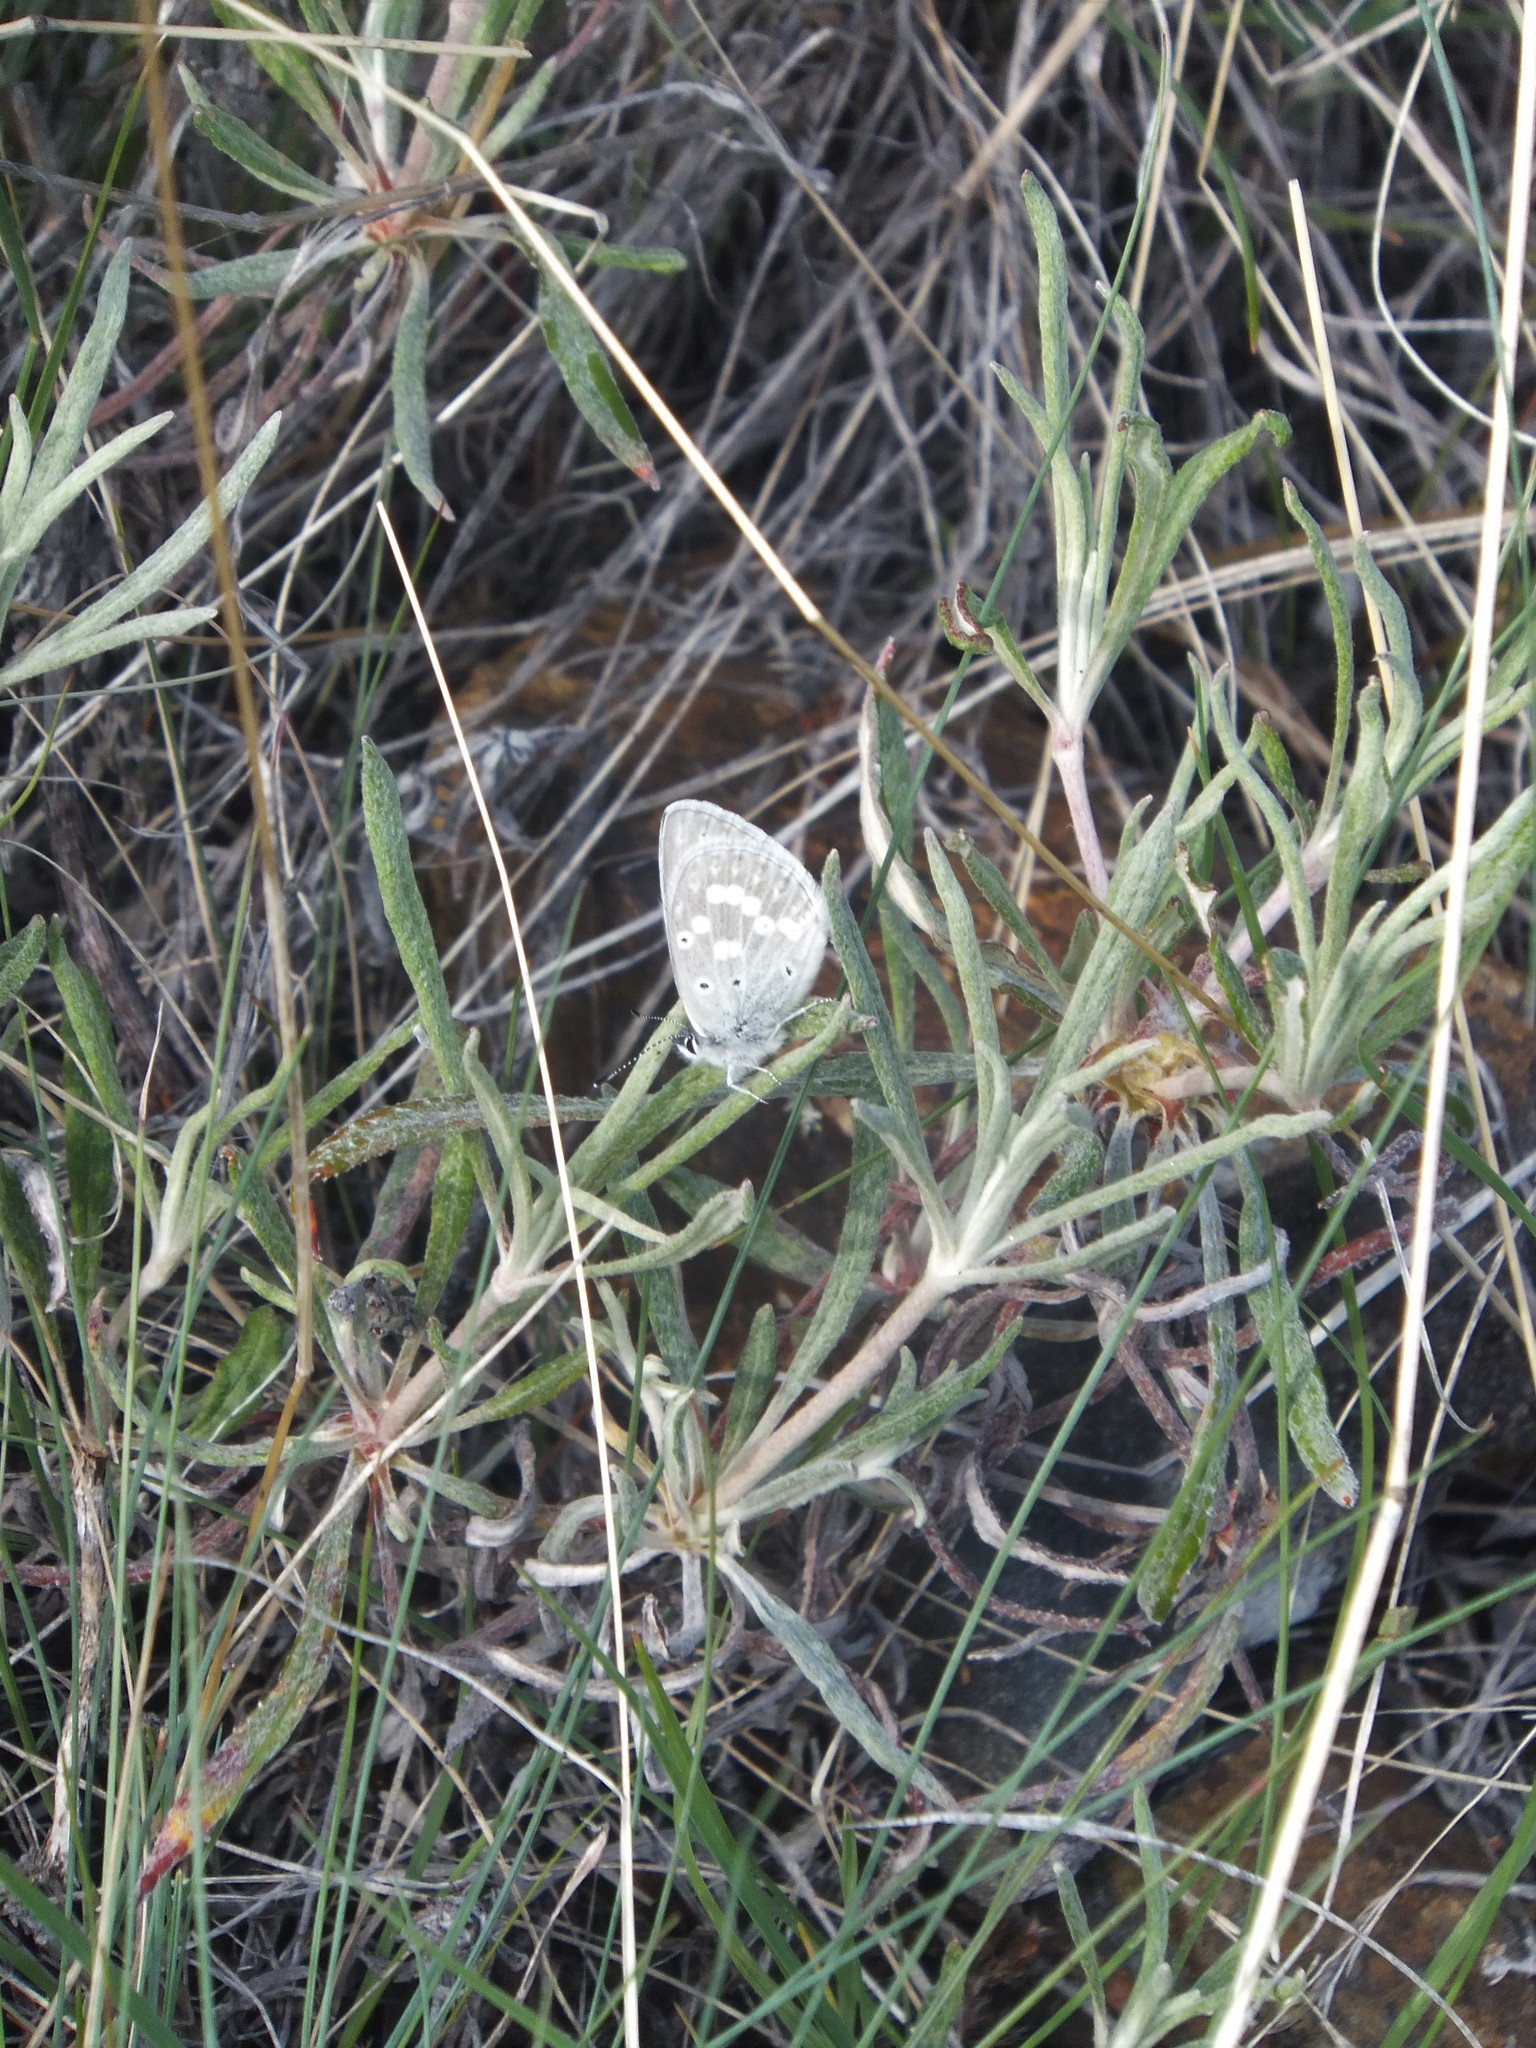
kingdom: Animalia
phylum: Arthropoda
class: Insecta
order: Lepidoptera
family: Lycaenidae
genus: Icaricia
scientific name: Icaricia icarioides
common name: Boisduval's blue
